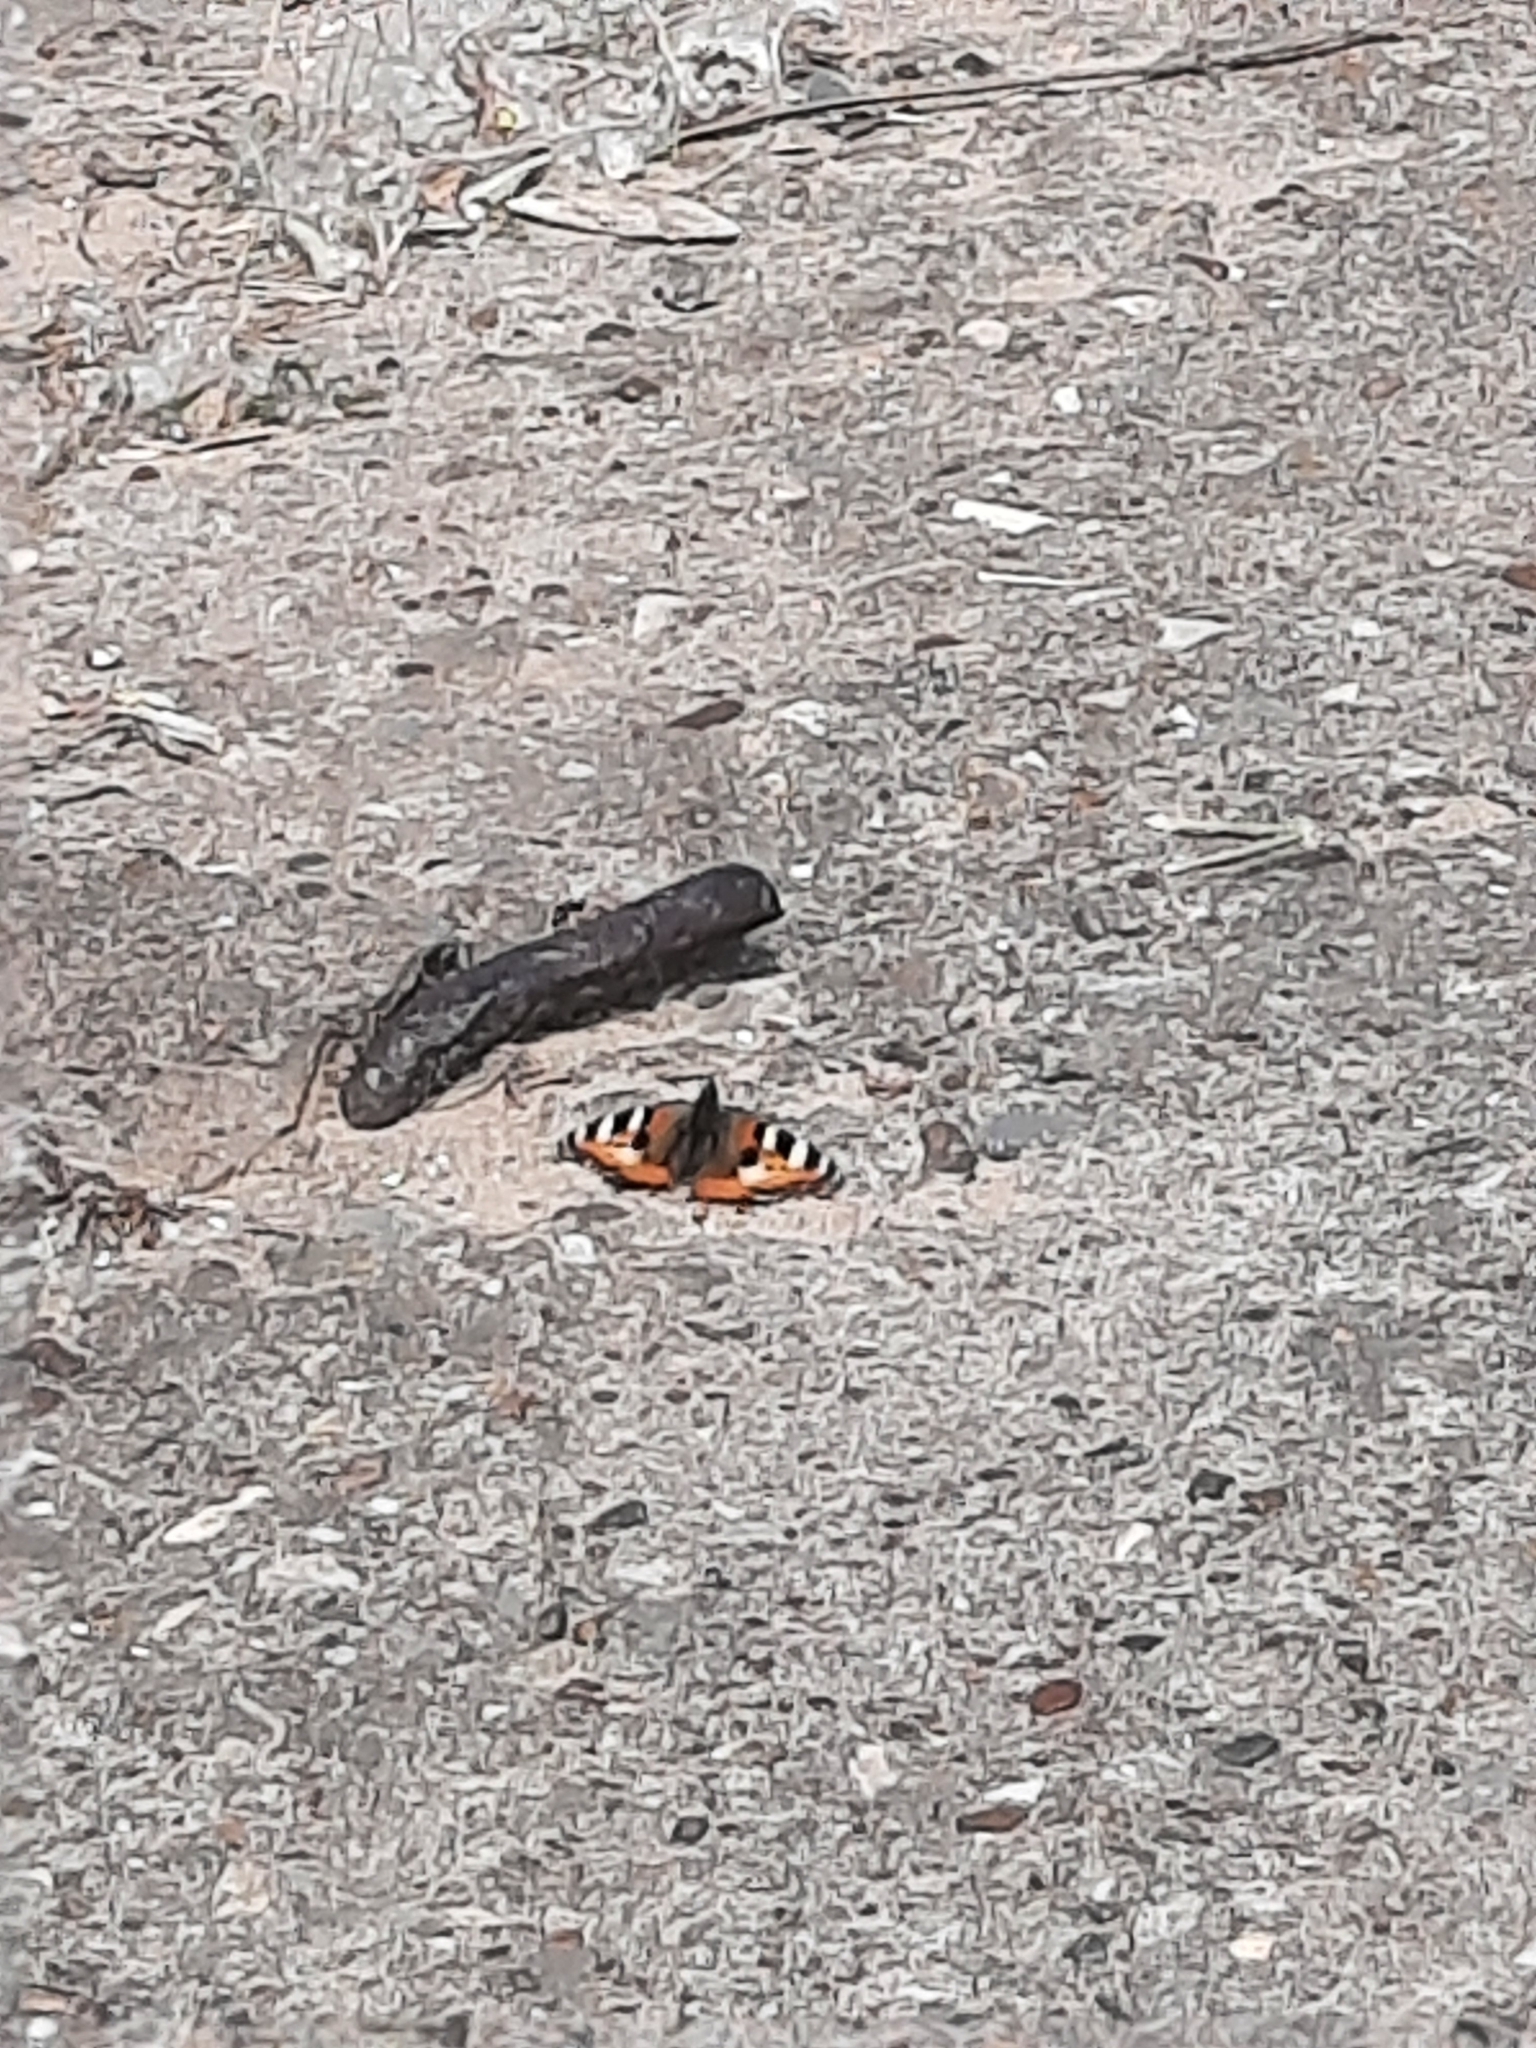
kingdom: Animalia
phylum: Arthropoda
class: Insecta
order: Lepidoptera
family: Nymphalidae
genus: Aglais
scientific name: Aglais urticae
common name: Small tortoiseshell
